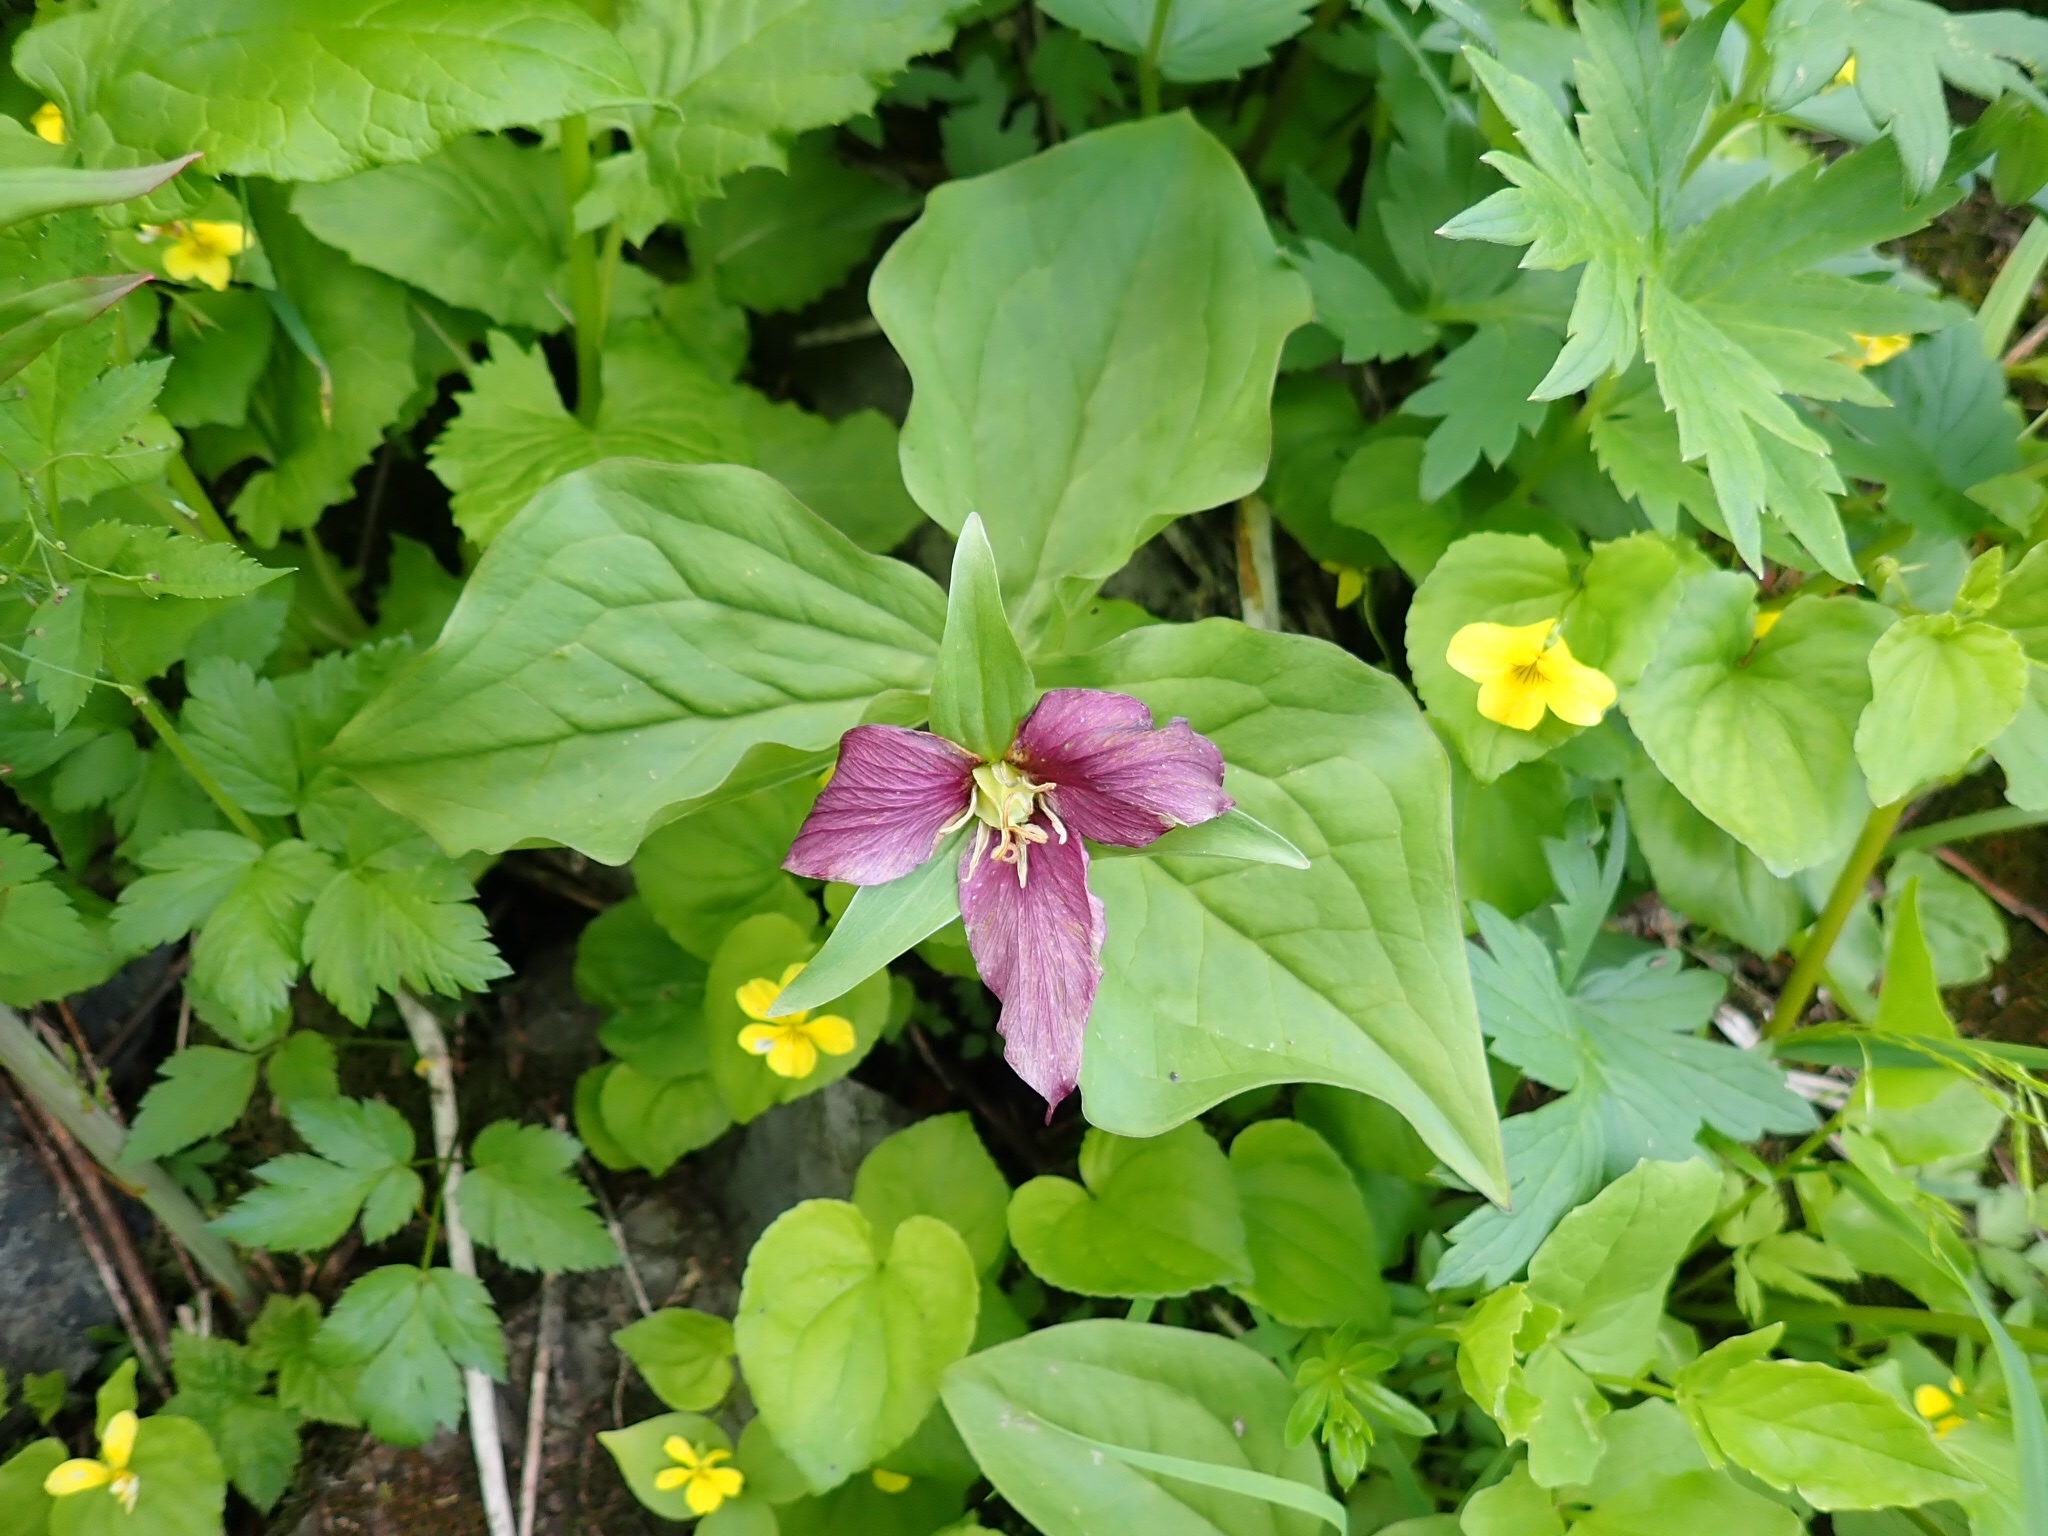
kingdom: Plantae
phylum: Tracheophyta
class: Liliopsida
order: Liliales
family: Melanthiaceae
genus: Trillium
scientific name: Trillium ovatum
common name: Pacific trillium
